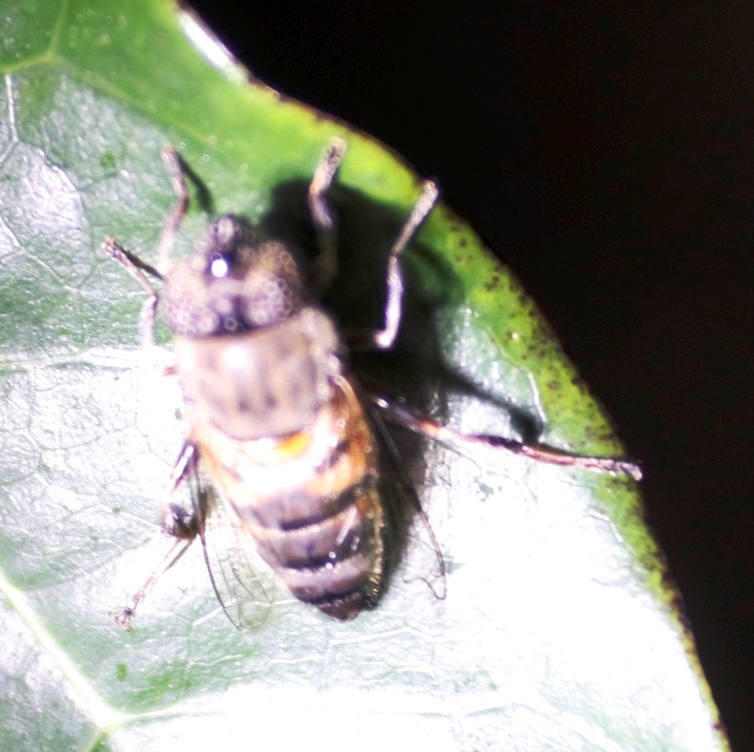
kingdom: Animalia
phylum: Arthropoda
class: Insecta
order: Diptera
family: Syrphidae
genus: Eristalinus
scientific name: Eristalinus haplops
